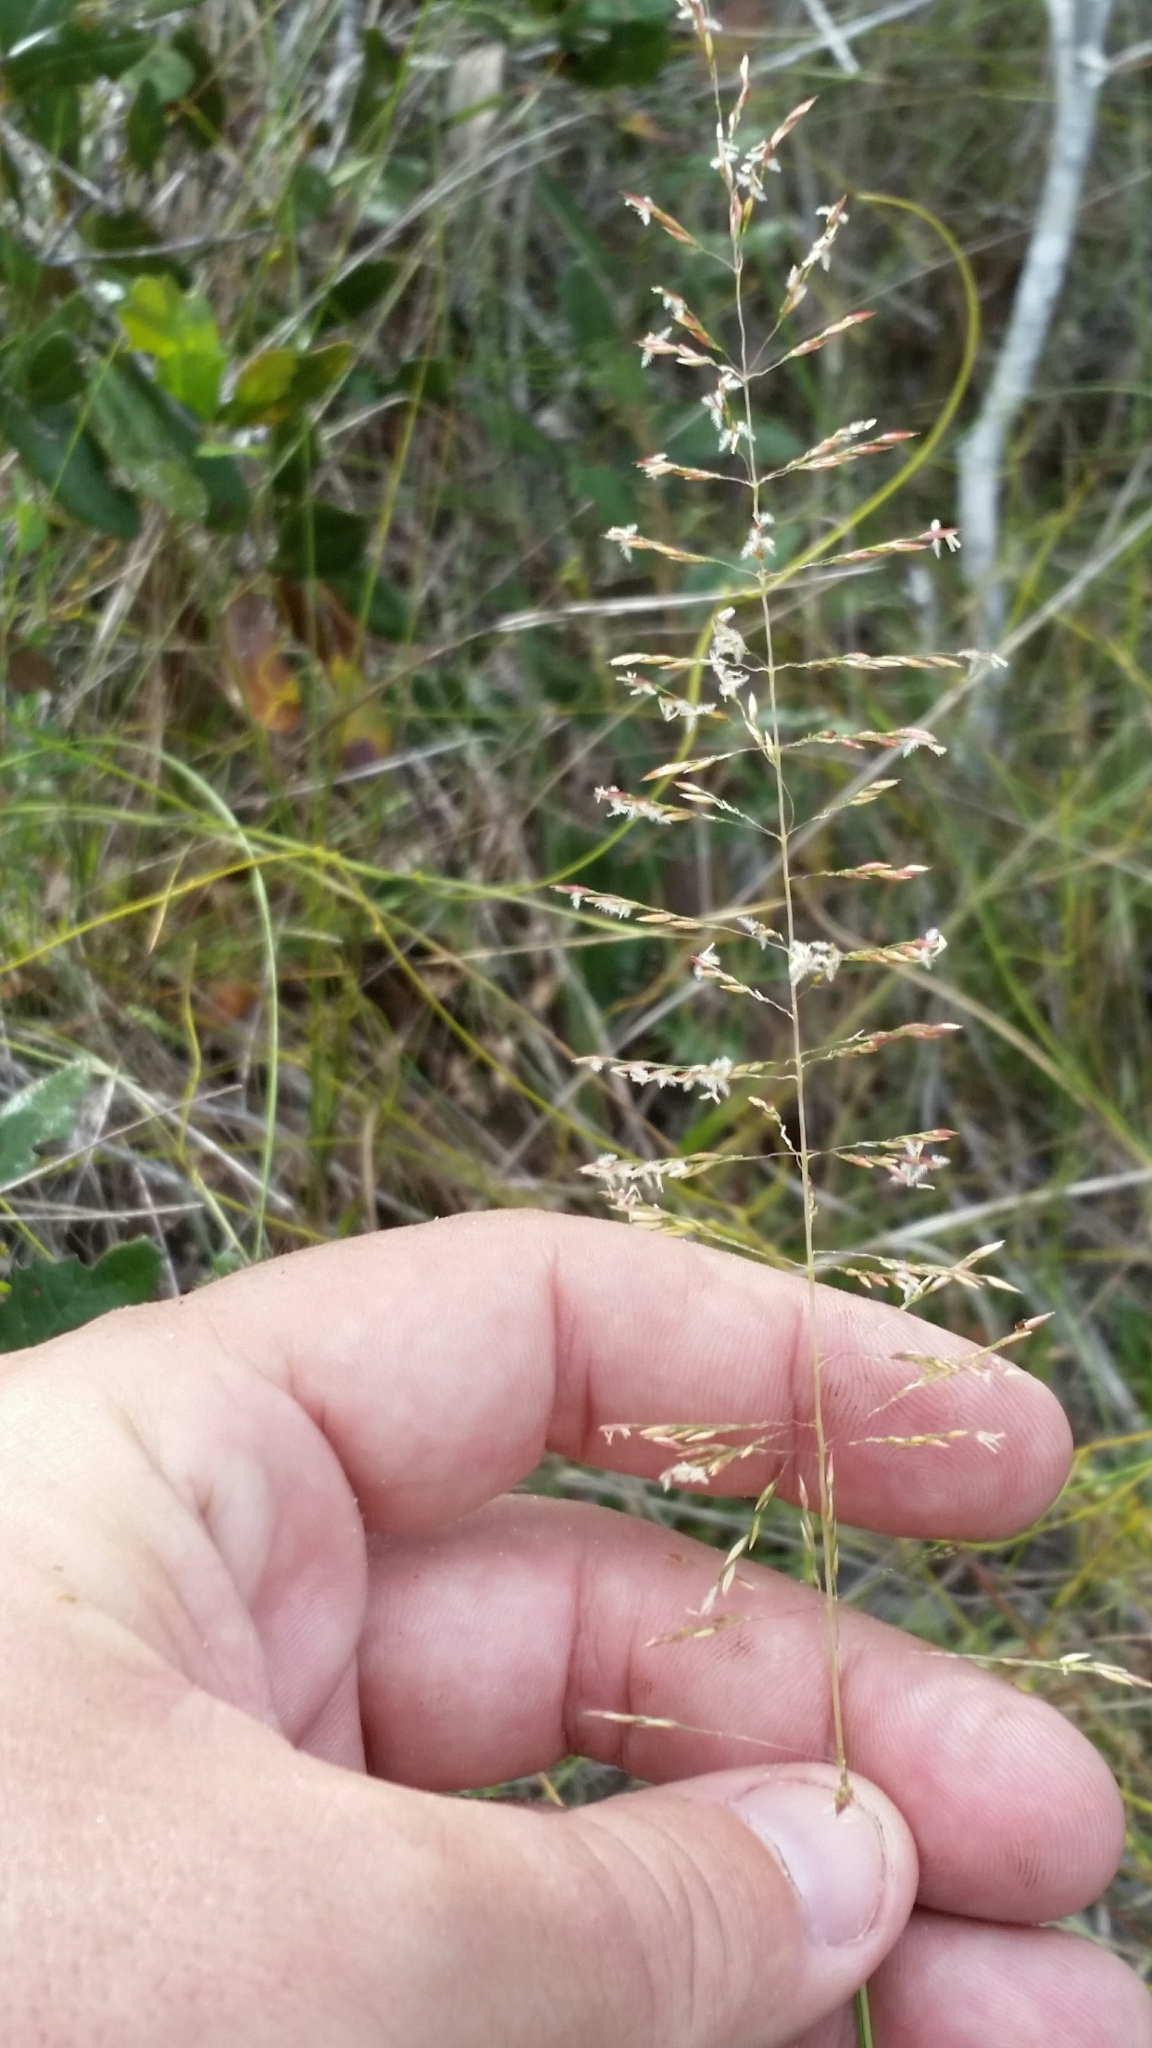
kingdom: Plantae
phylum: Tracheophyta
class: Liliopsida
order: Poales
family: Poaceae
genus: Sporobolus
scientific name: Sporobolus junceus
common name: Lizard grass
